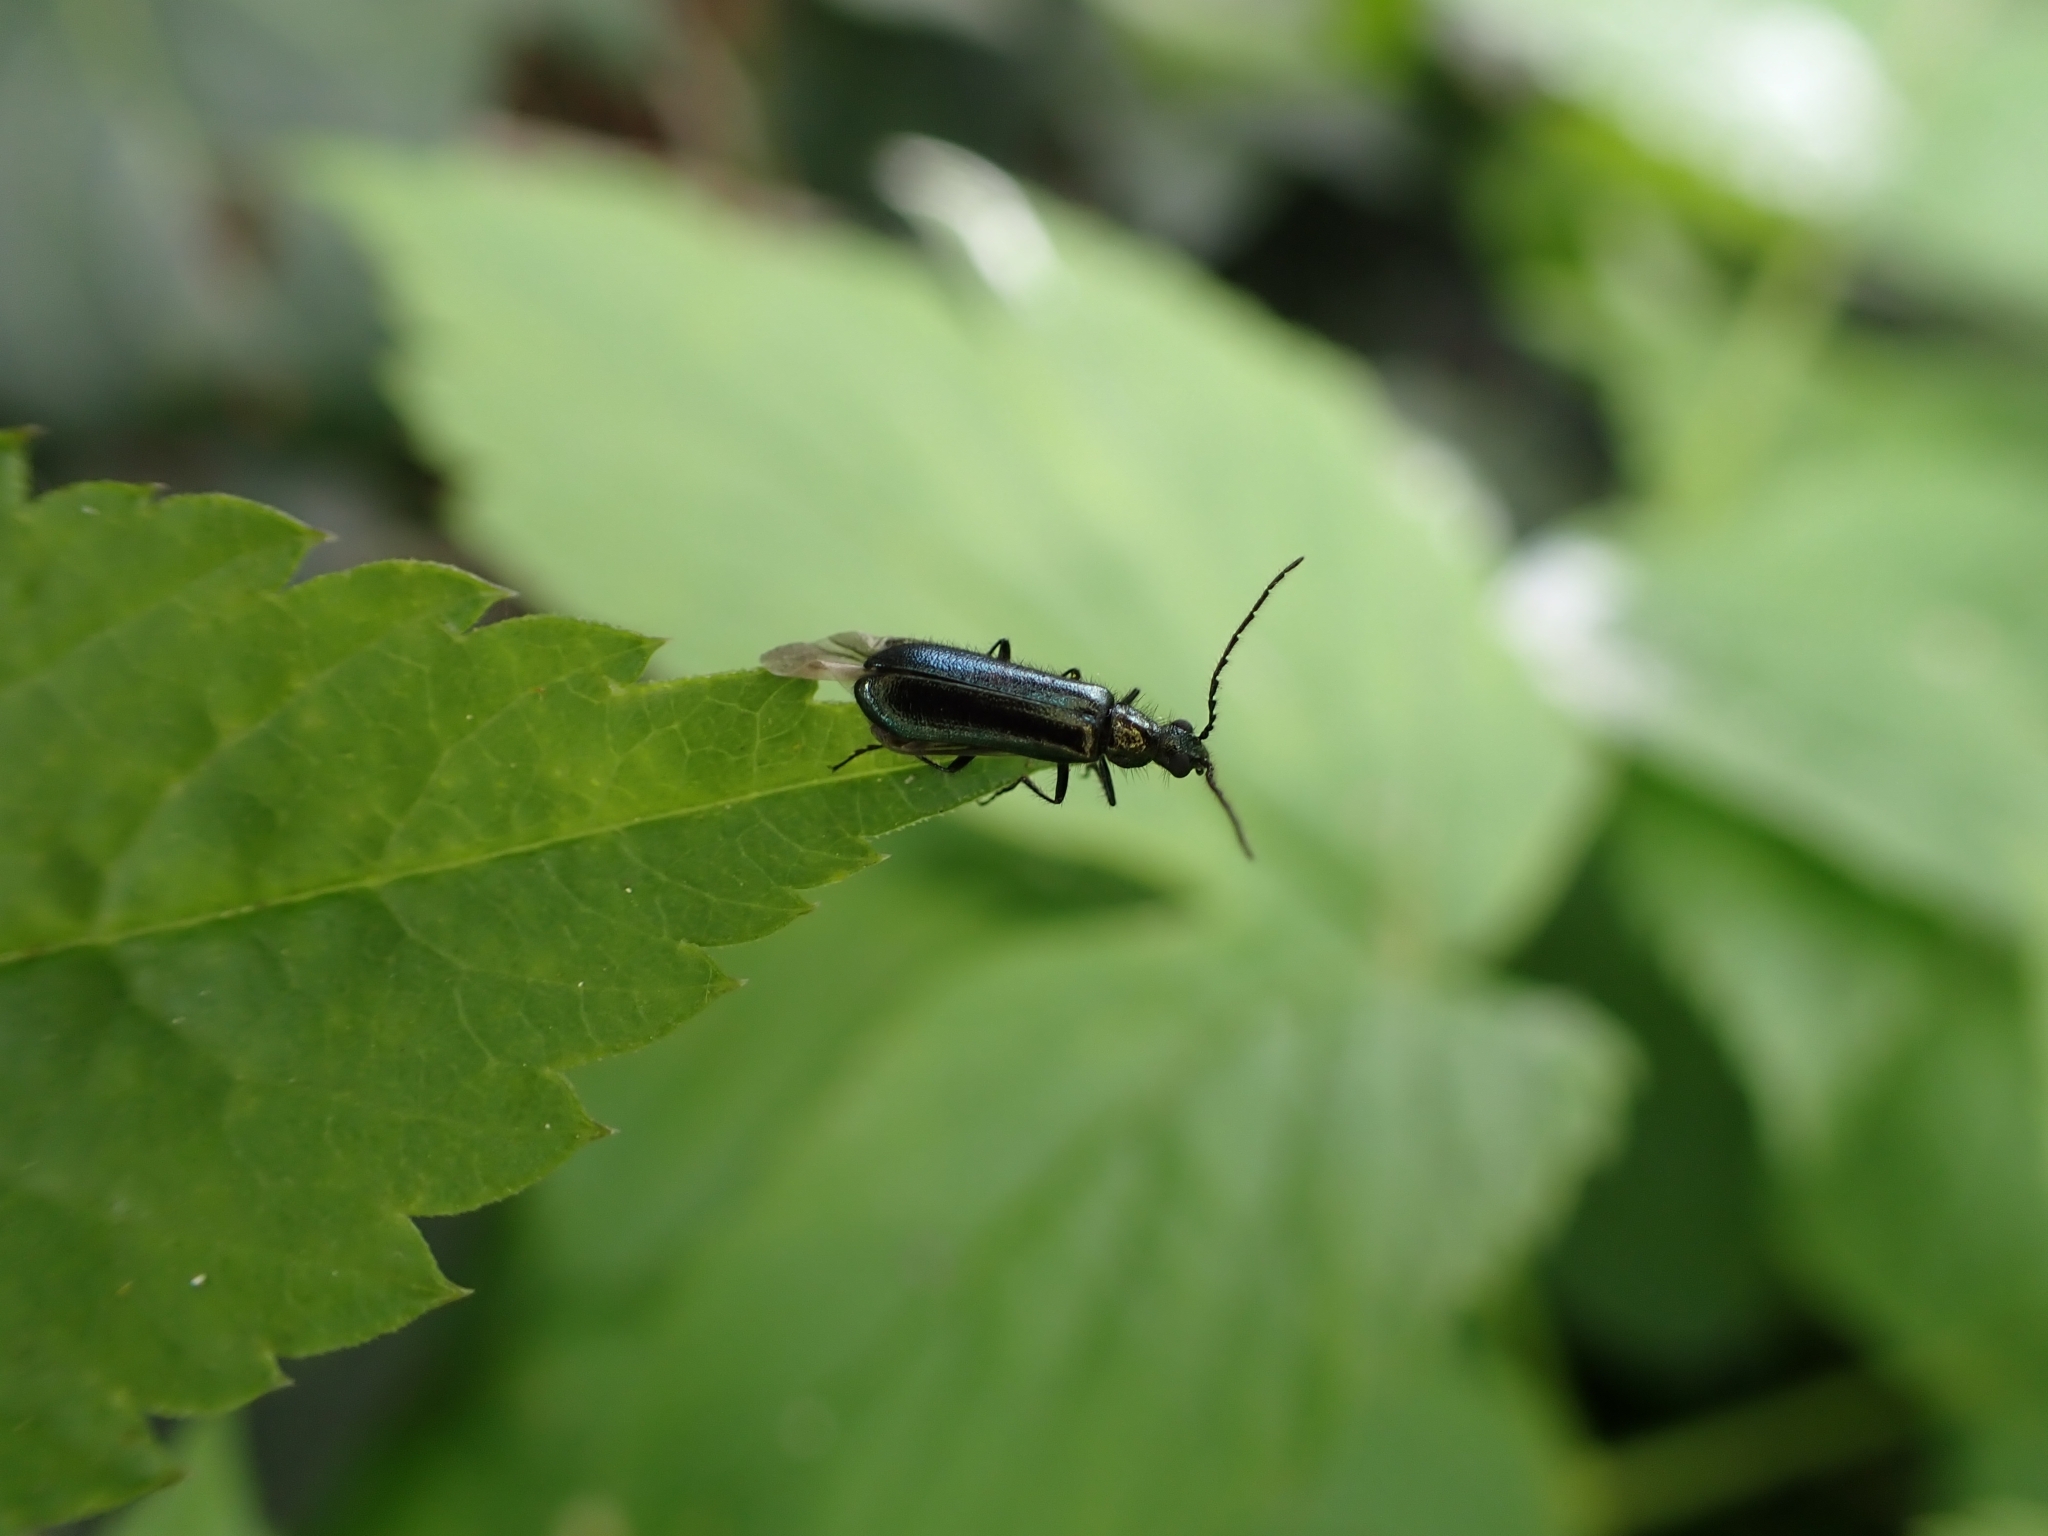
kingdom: Animalia
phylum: Arthropoda
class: Insecta
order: Coleoptera
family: Melyridae
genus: Dasytes
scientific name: Dasytes caeruleus
